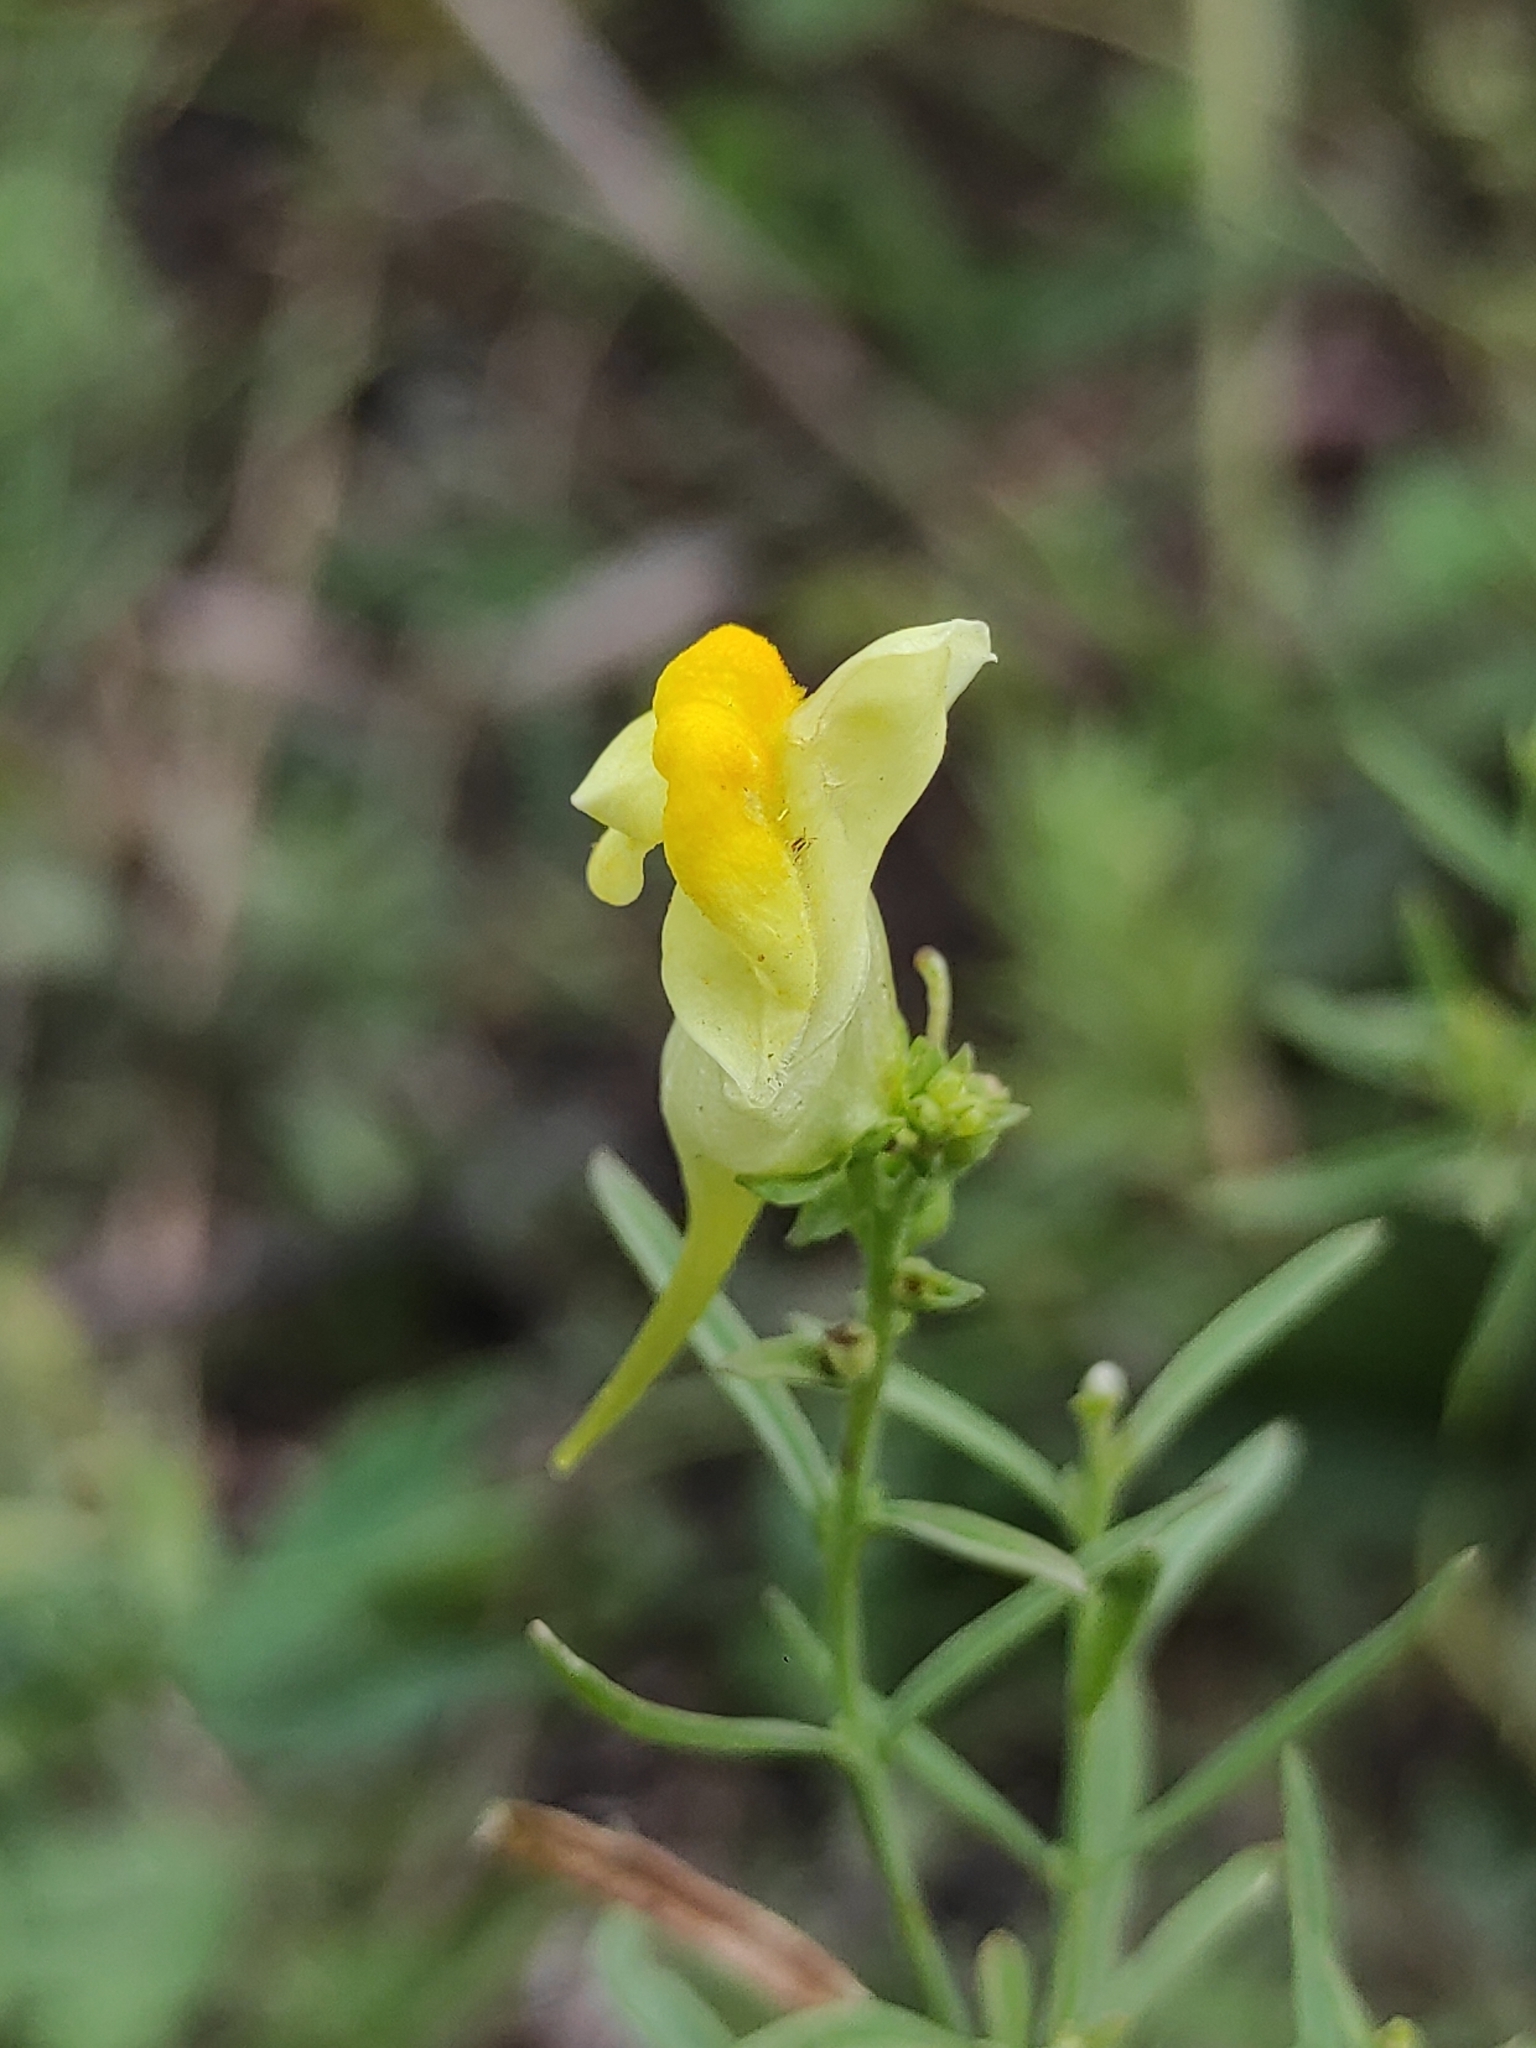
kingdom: Plantae
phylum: Tracheophyta
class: Magnoliopsida
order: Lamiales
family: Plantaginaceae
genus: Linaria
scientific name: Linaria vulgaris
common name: Butter and eggs
